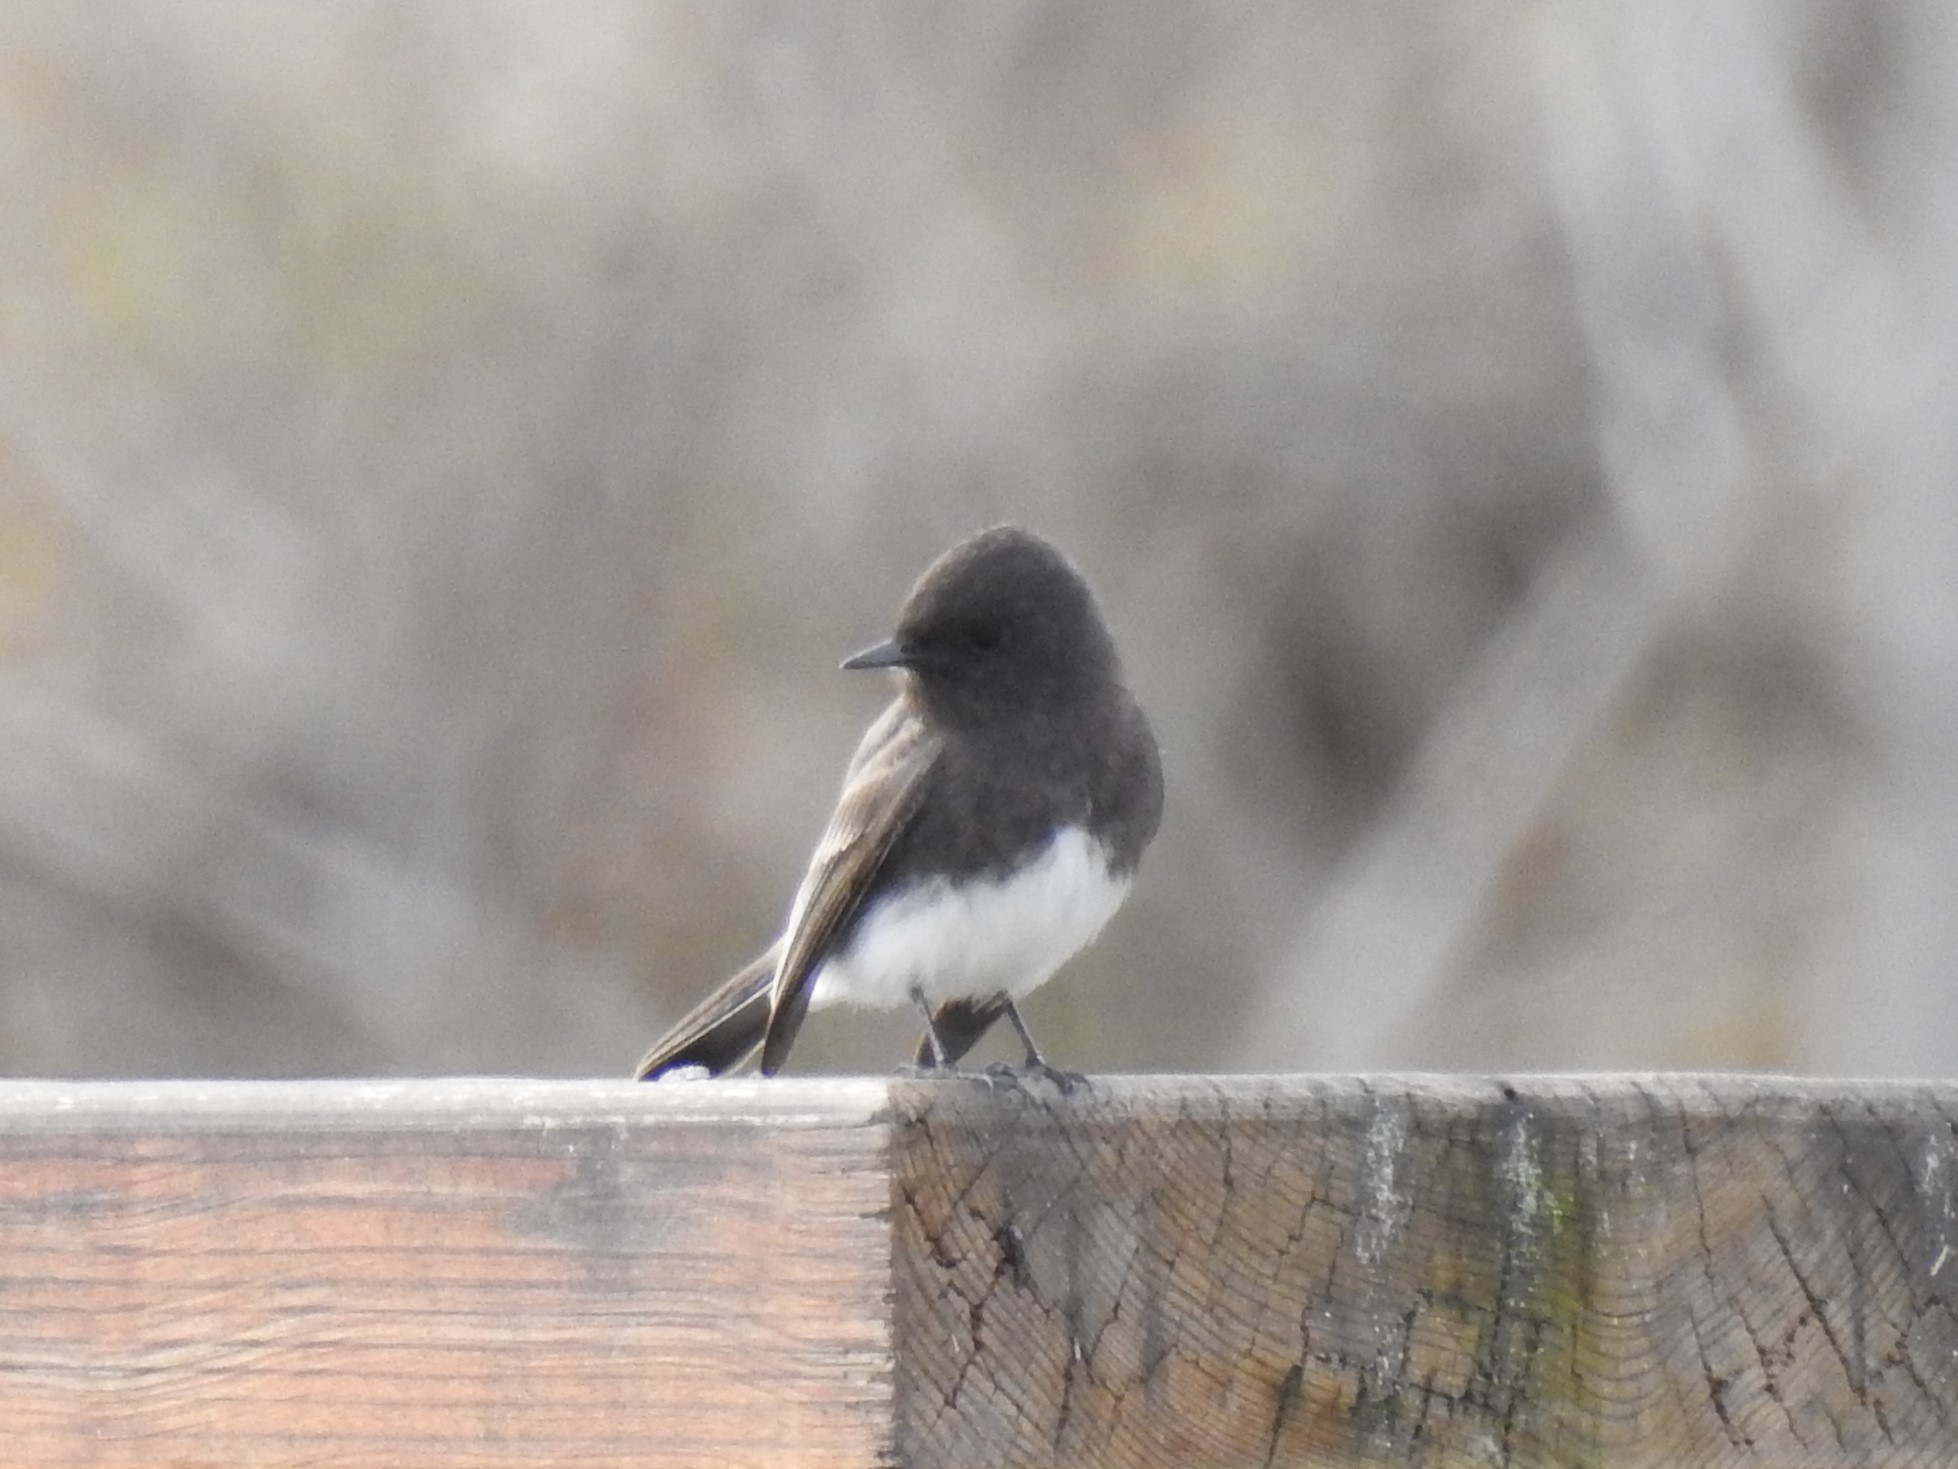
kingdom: Animalia
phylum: Chordata
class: Aves
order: Passeriformes
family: Tyrannidae
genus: Sayornis
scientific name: Sayornis nigricans
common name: Black phoebe
